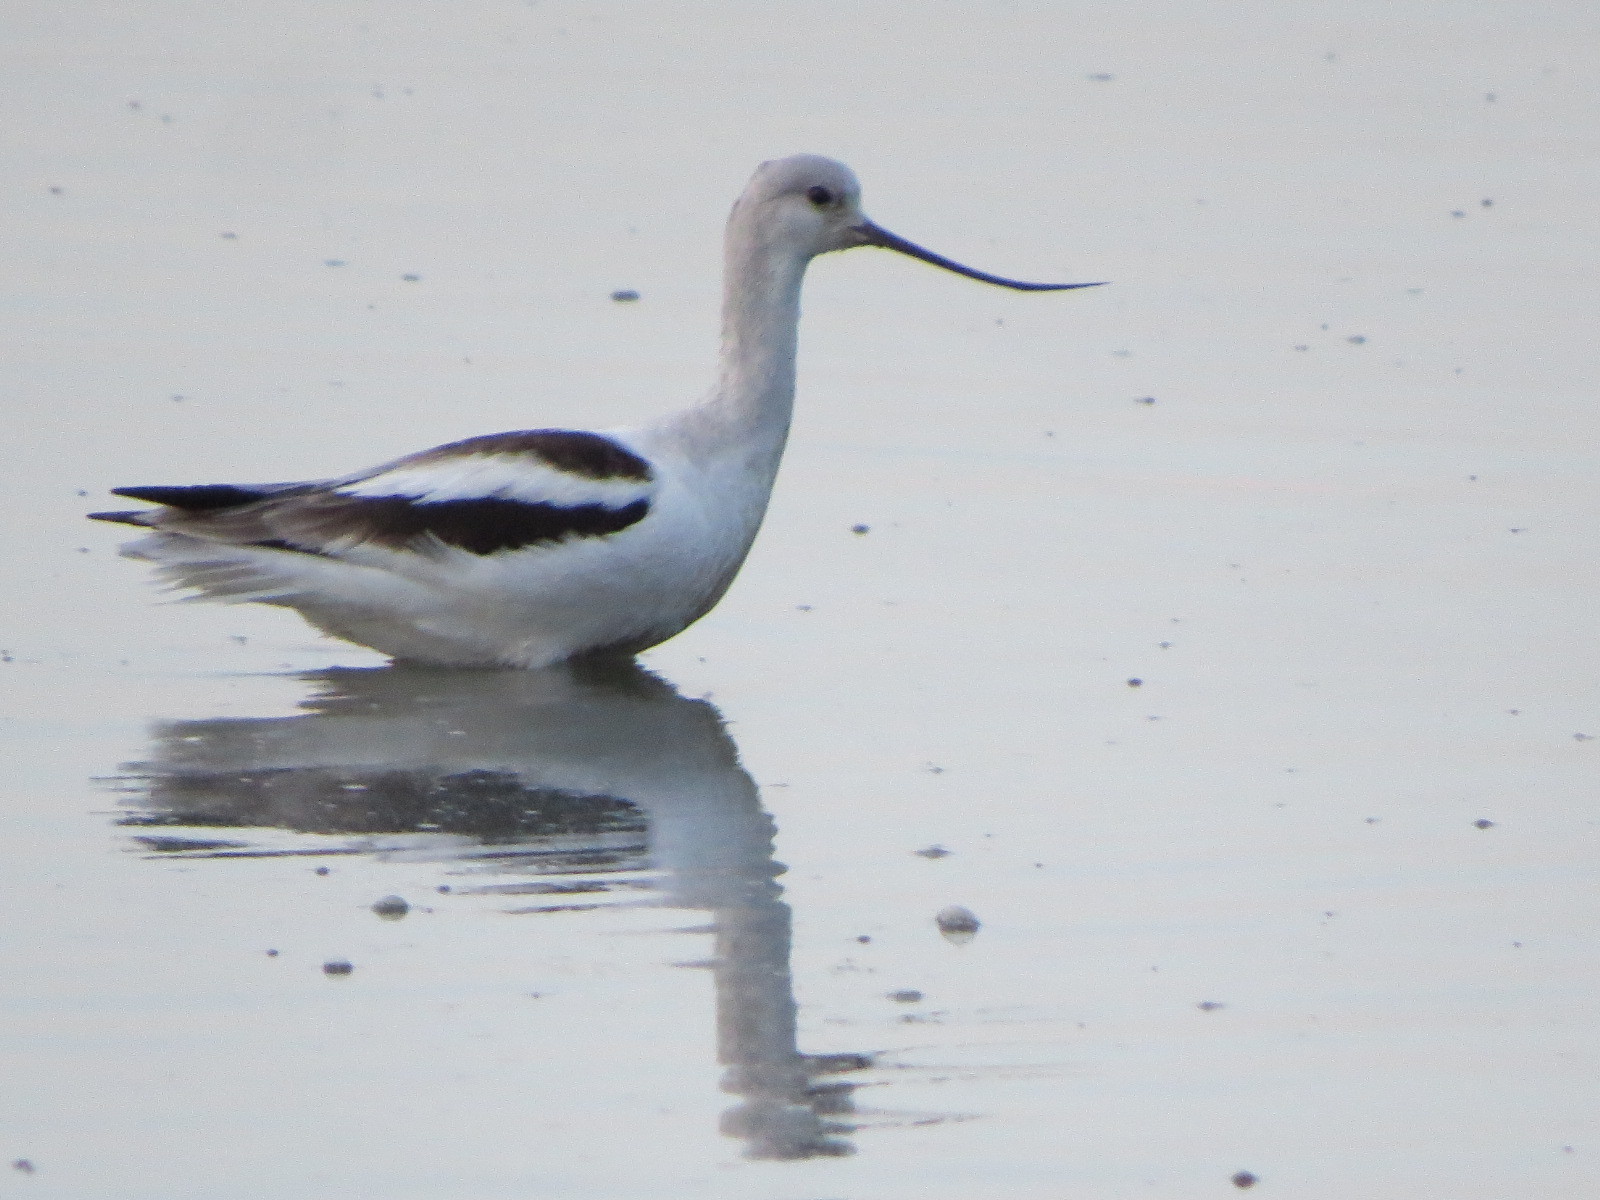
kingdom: Animalia
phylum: Chordata
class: Aves
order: Charadriiformes
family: Recurvirostridae
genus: Recurvirostra
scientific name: Recurvirostra americana
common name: American avocet
